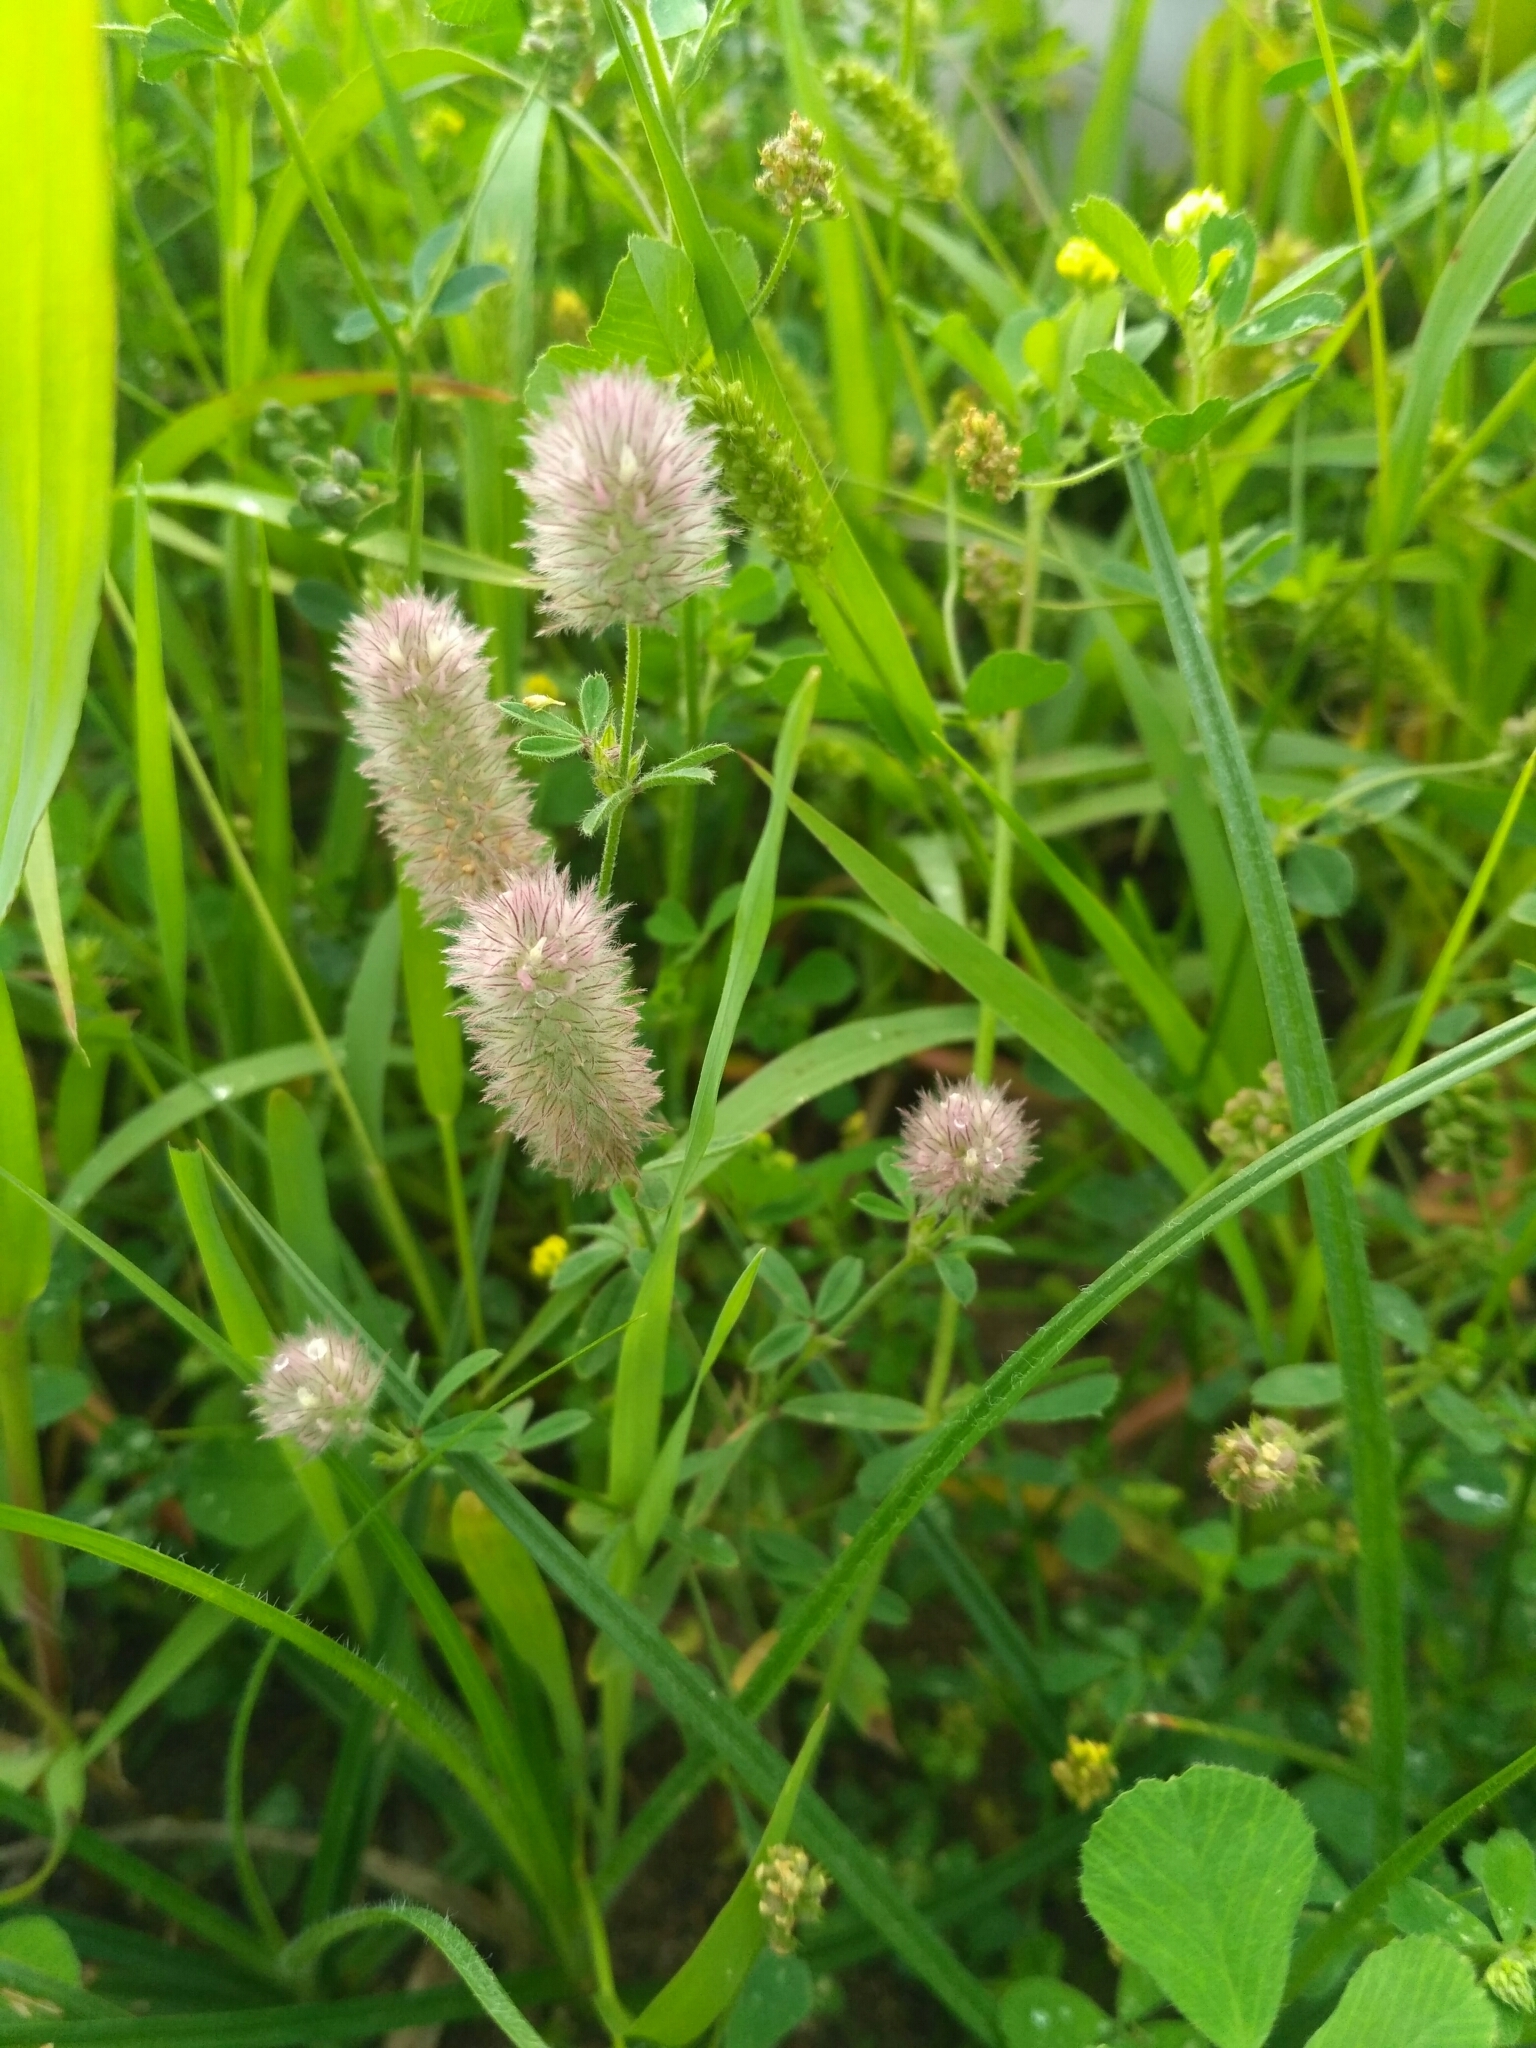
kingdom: Plantae
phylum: Tracheophyta
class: Magnoliopsida
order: Fabales
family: Fabaceae
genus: Trifolium
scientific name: Trifolium arvense
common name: Hare's-foot clover
